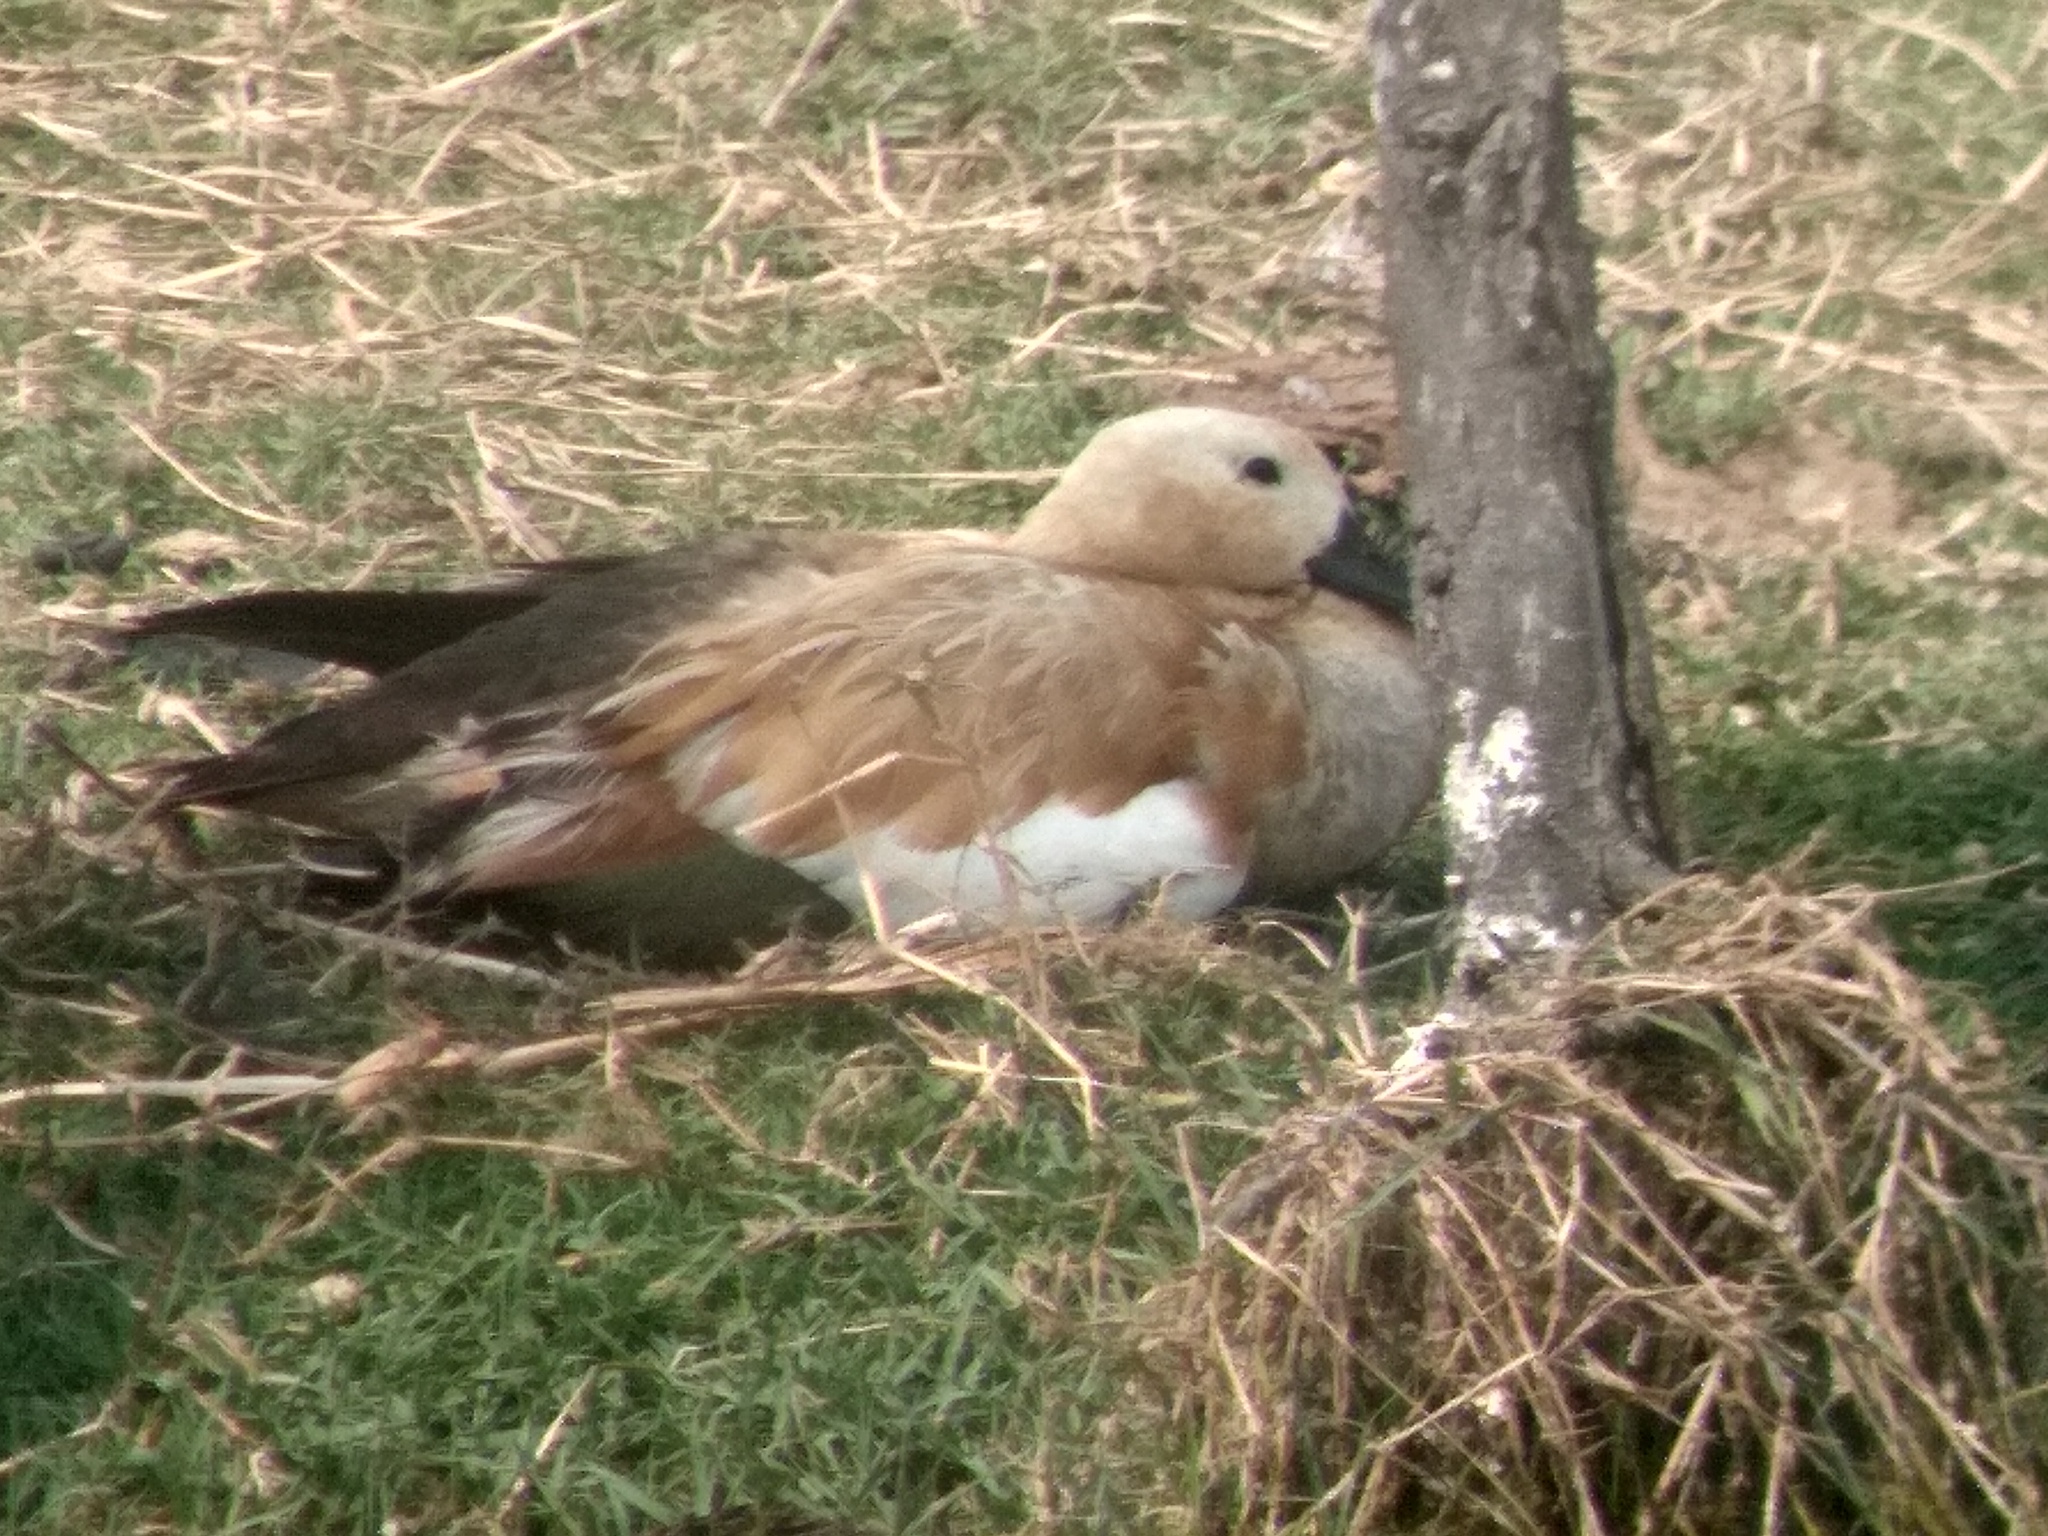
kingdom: Animalia
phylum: Chordata
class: Aves
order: Anseriformes
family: Anatidae
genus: Tadorna
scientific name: Tadorna ferruginea
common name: Ruddy shelduck
